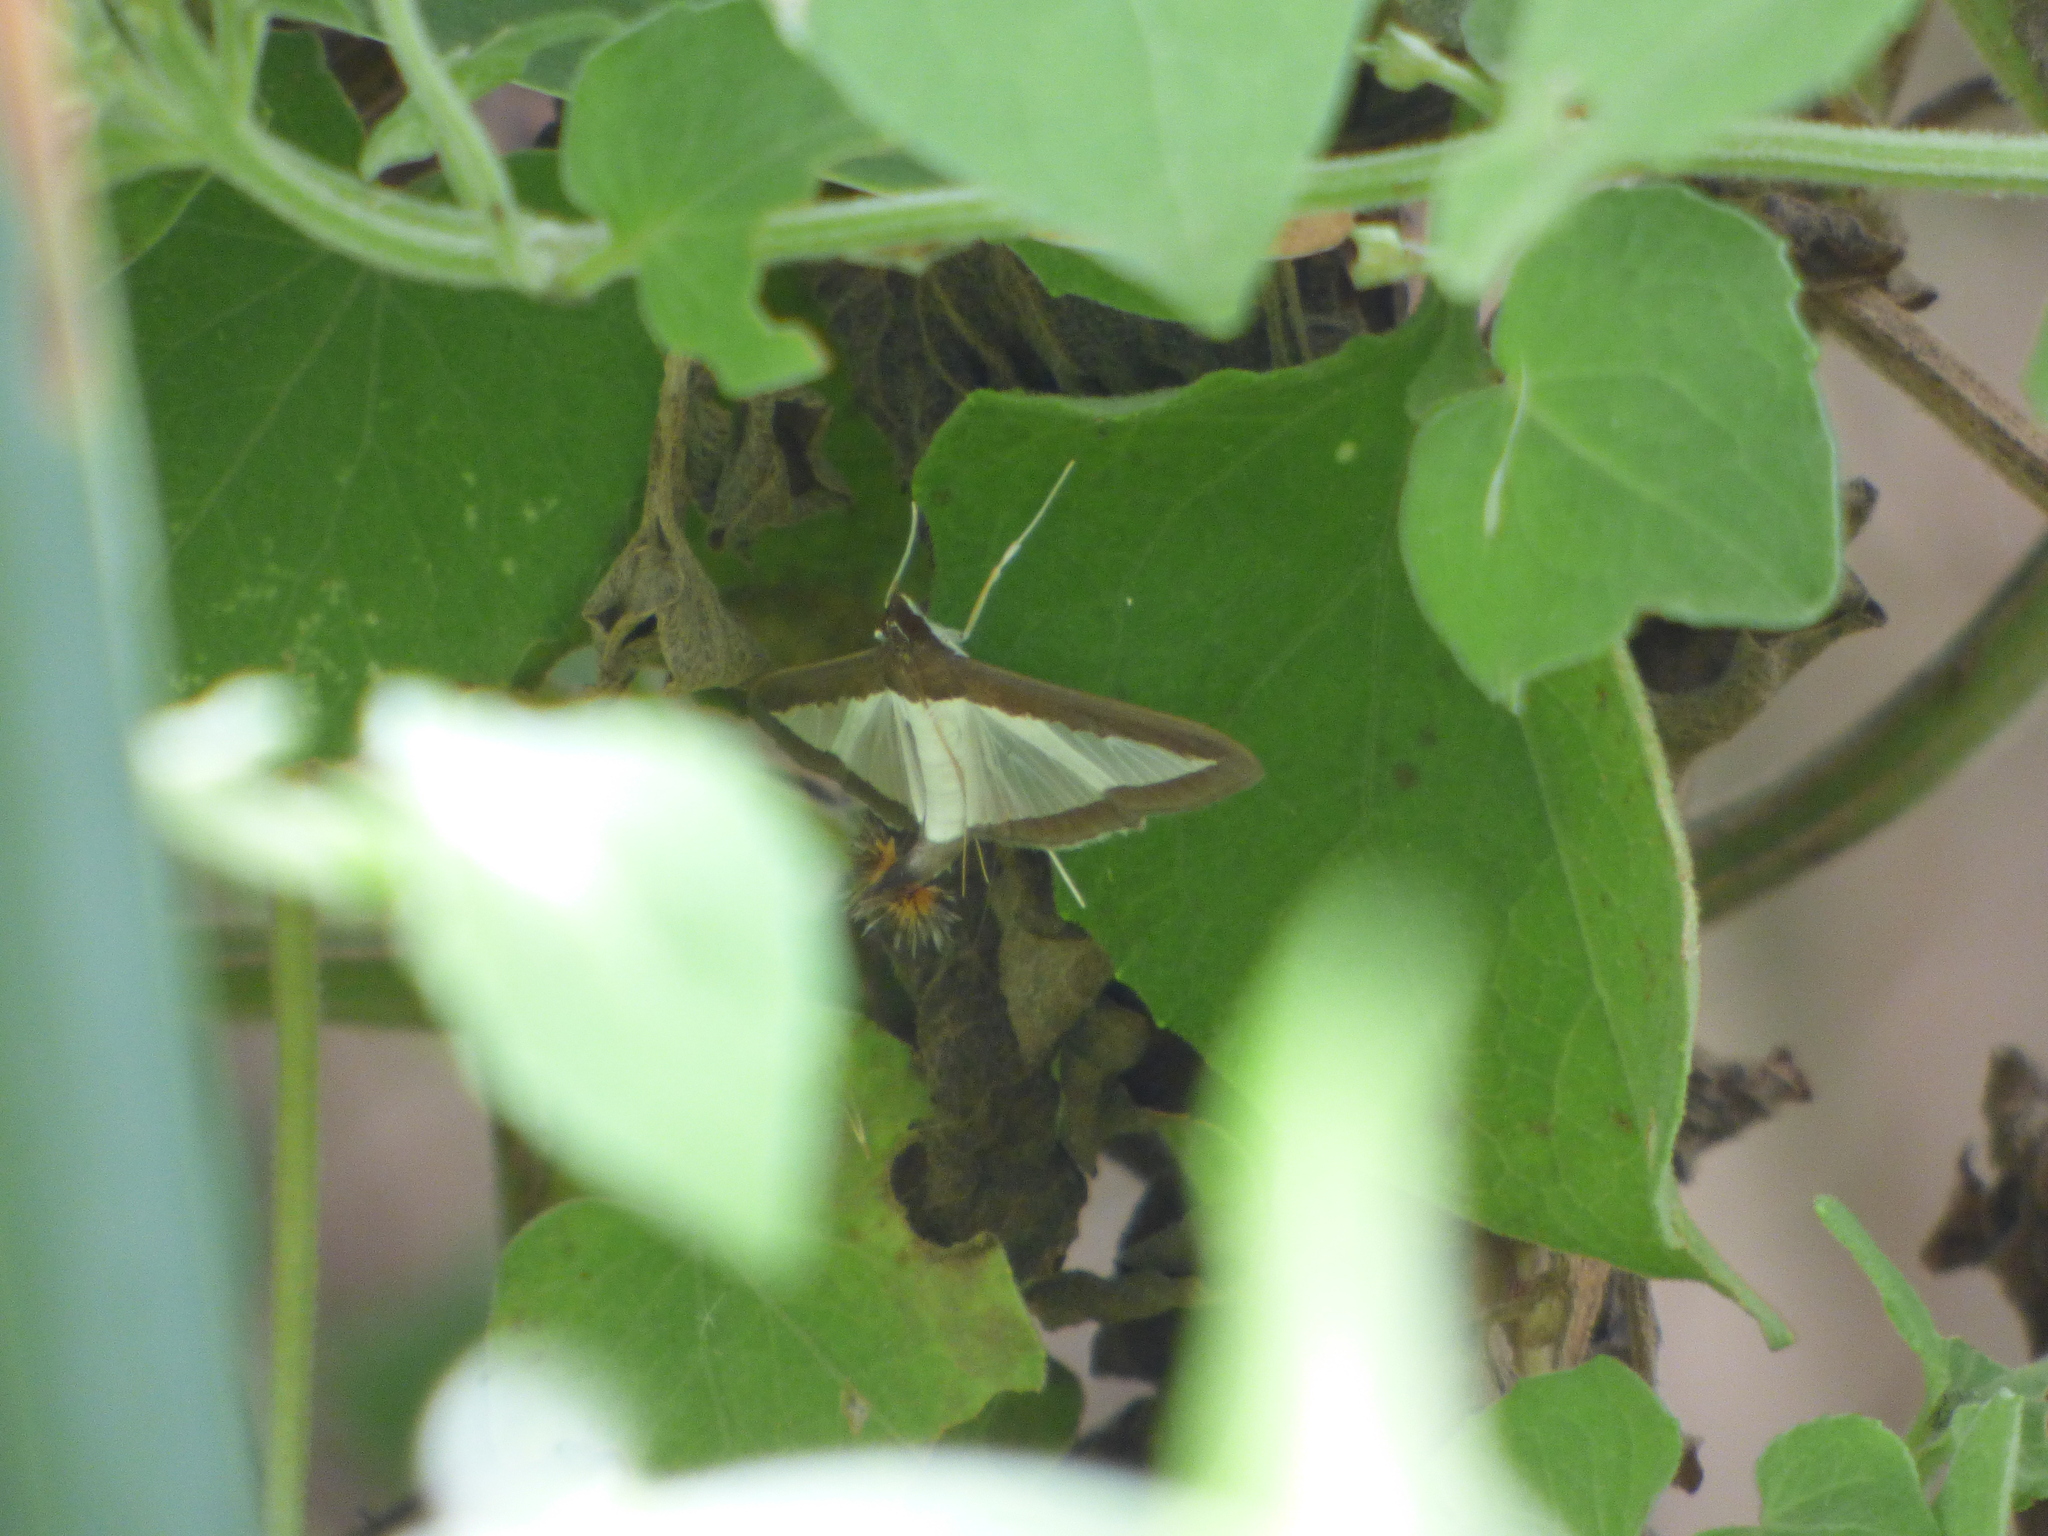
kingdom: Animalia
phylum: Arthropoda
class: Insecta
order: Lepidoptera
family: Crambidae
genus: Diaphania
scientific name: Diaphania hyalinata
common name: Melonworm
